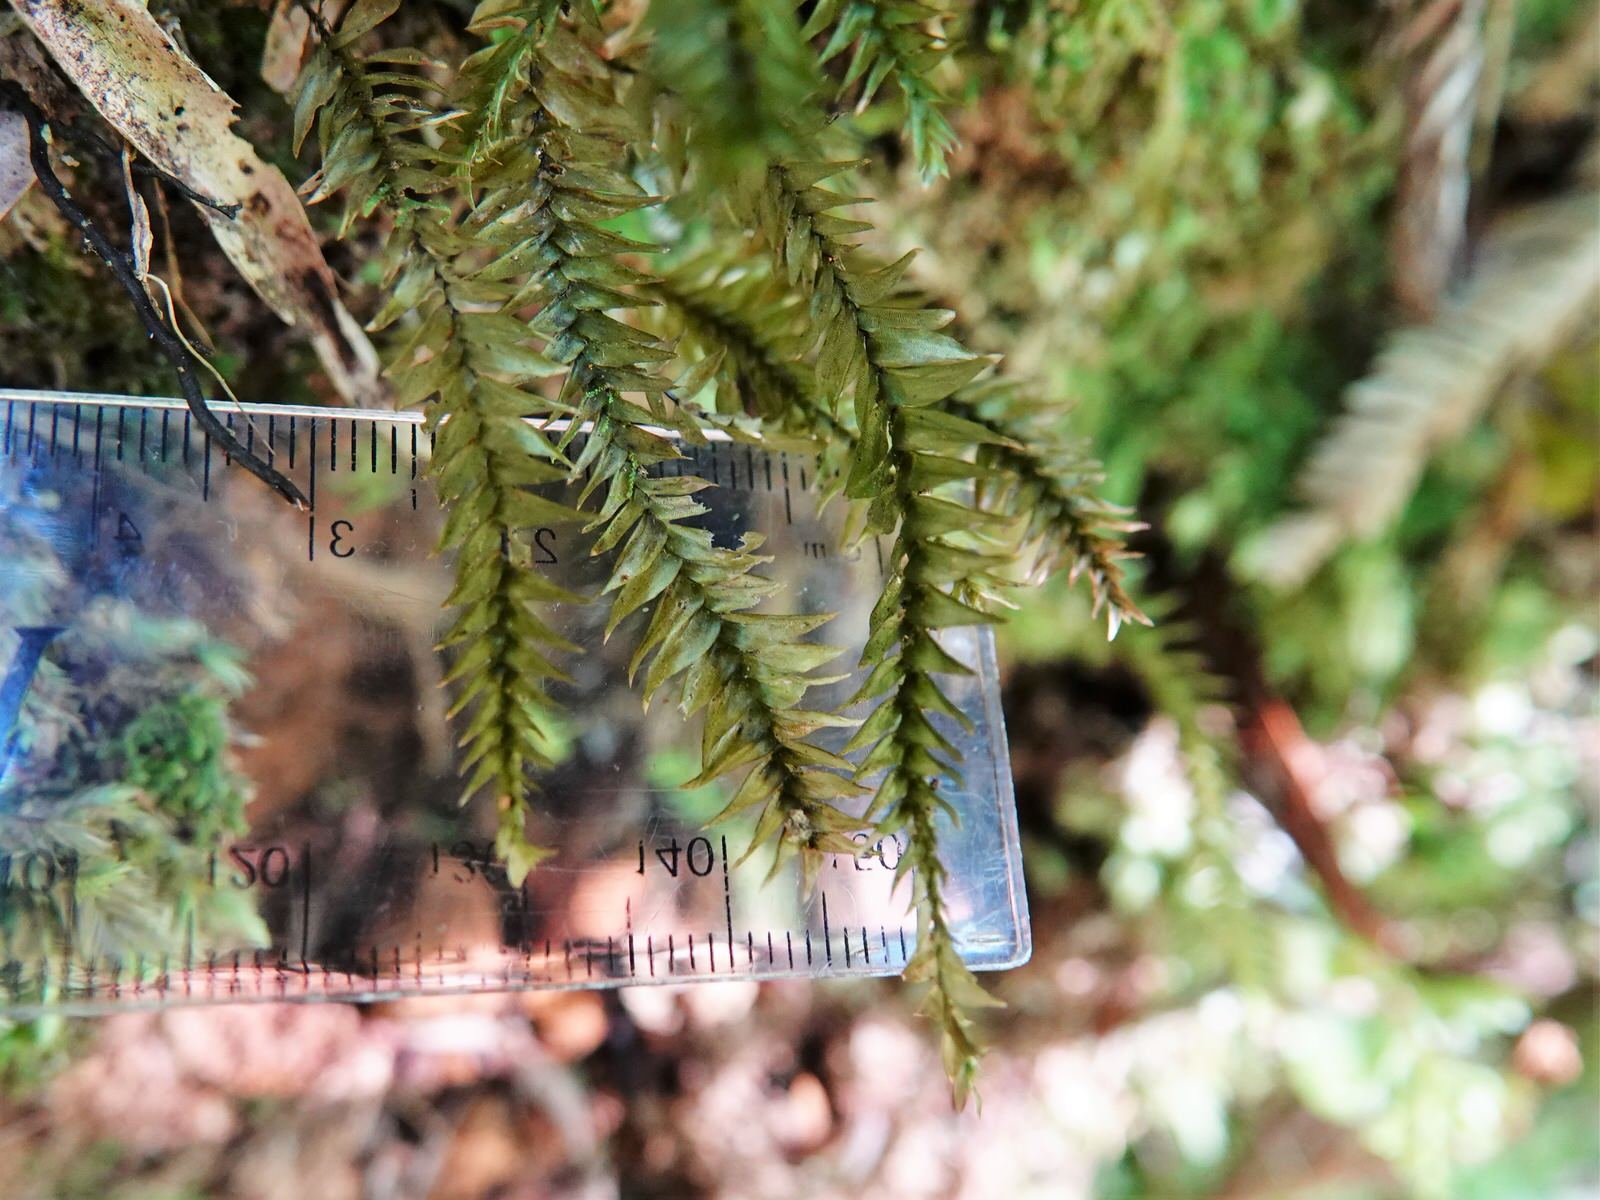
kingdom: Plantae
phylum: Bryophyta
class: Bryopsida
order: Hypopterygiales
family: Hypopterygiaceae
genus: Cyathophorum
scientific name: Cyathophorum bulbosum
